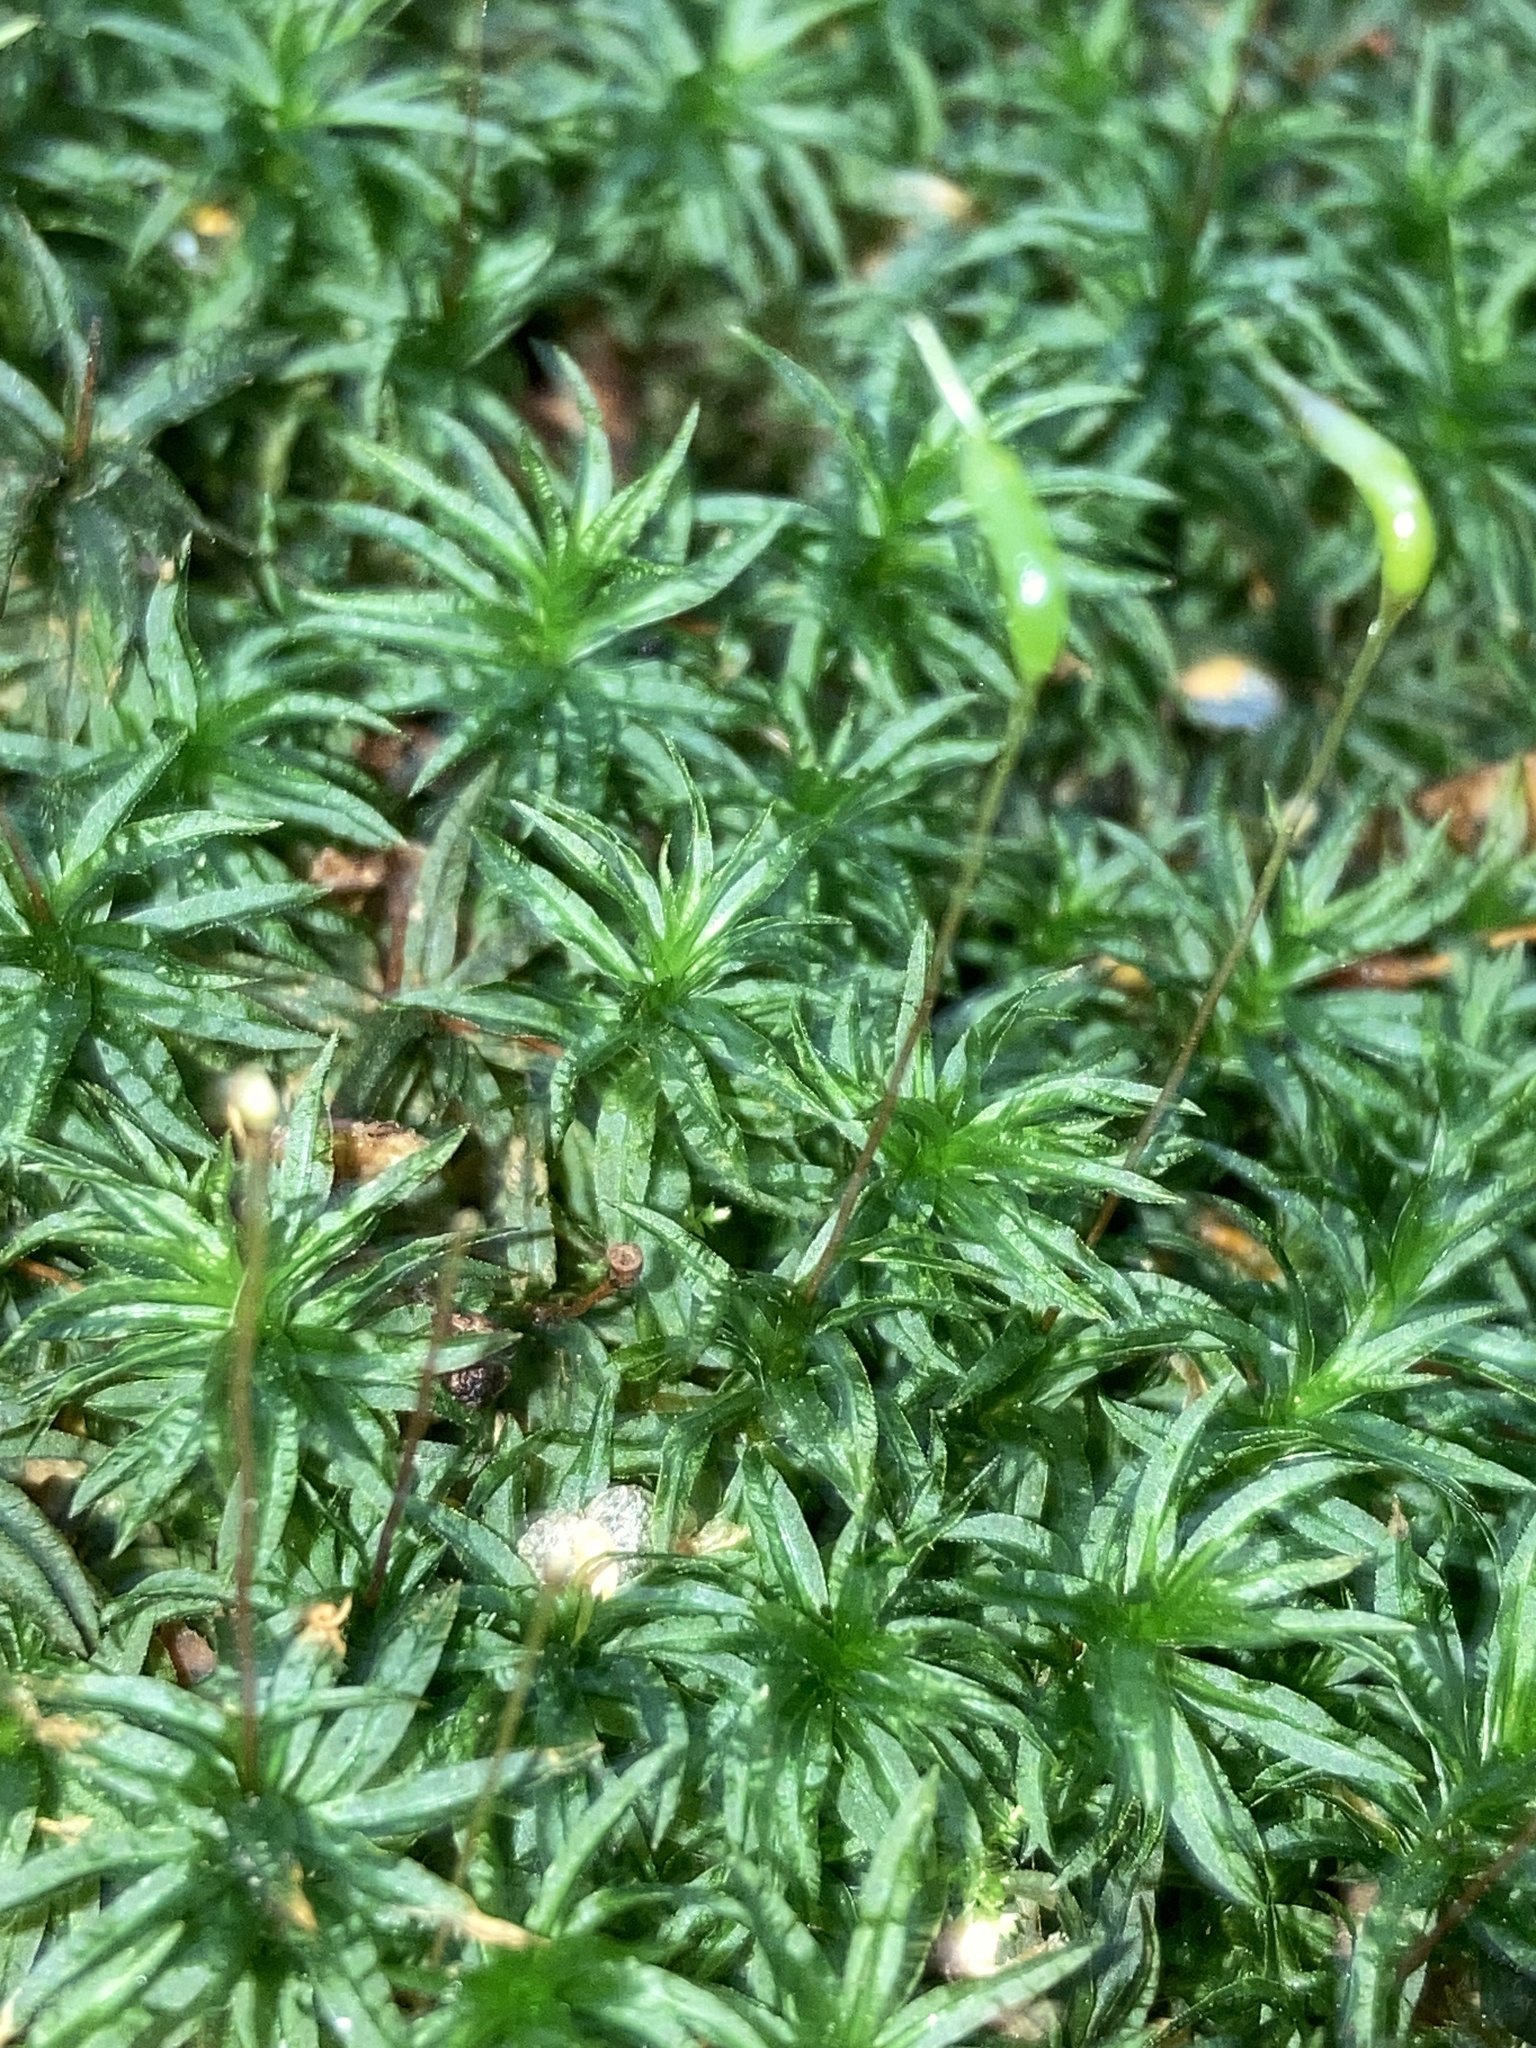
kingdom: Plantae
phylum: Bryophyta
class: Polytrichopsida
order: Polytrichales
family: Polytrichaceae
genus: Atrichum
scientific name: Atrichum undulatum
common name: Common smoothcap
